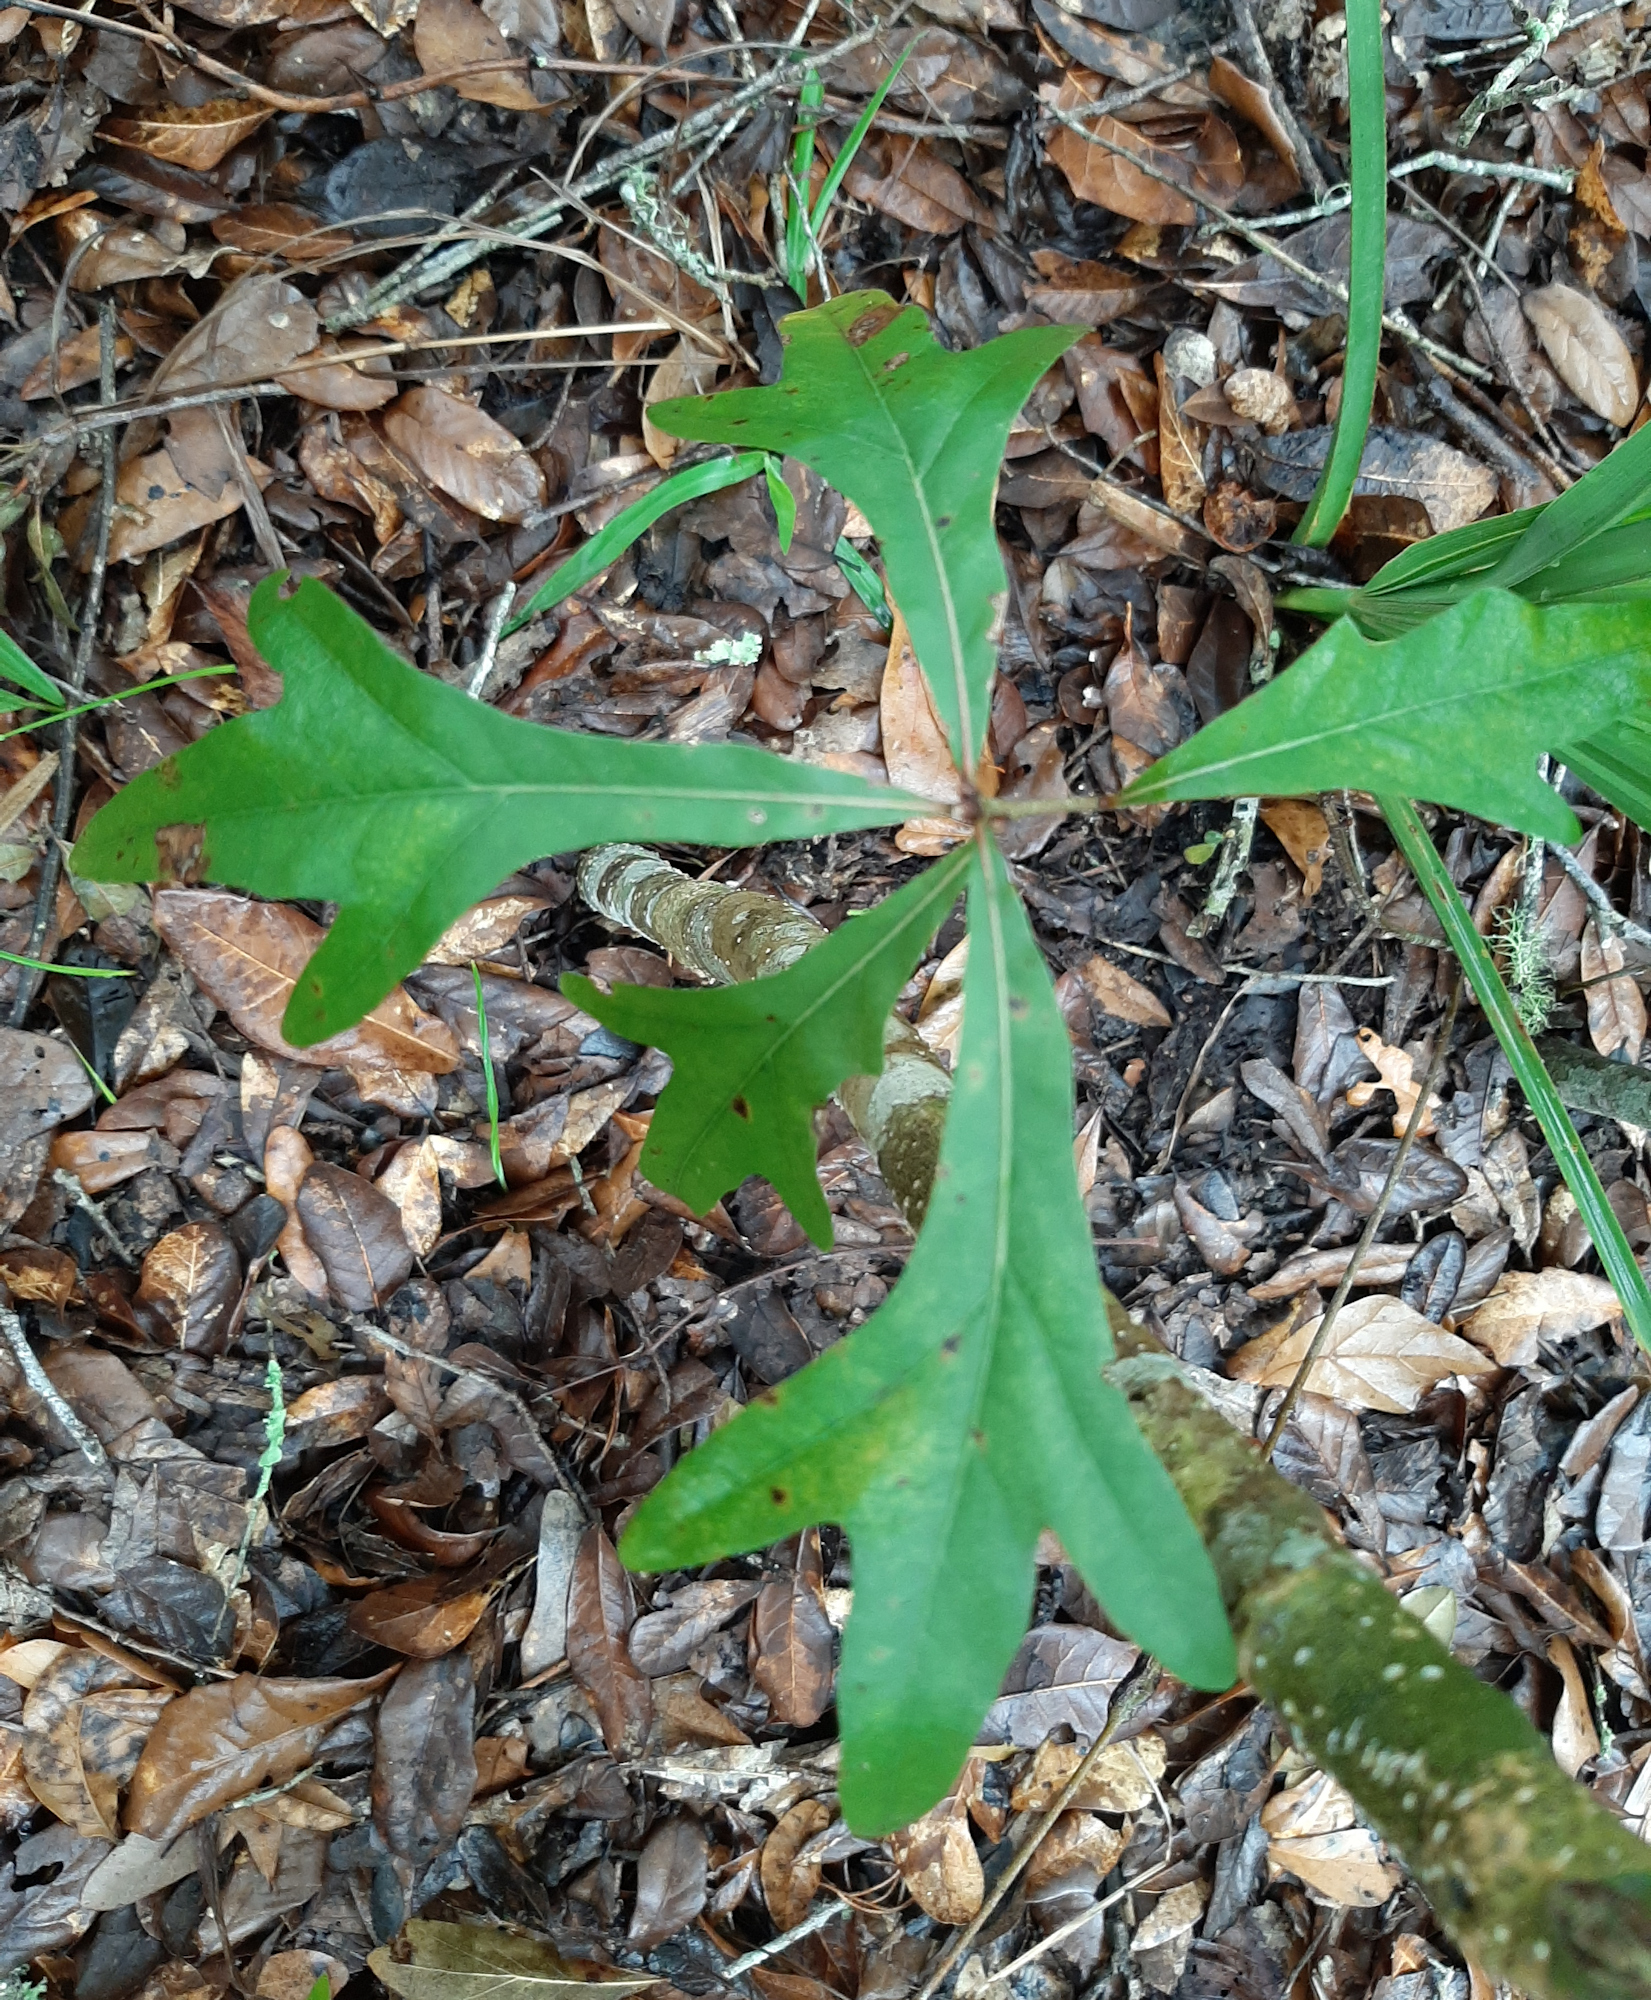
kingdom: Plantae
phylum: Tracheophyta
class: Magnoliopsida
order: Fagales
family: Fagaceae
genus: Quercus
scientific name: Quercus nigra
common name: Water oak
